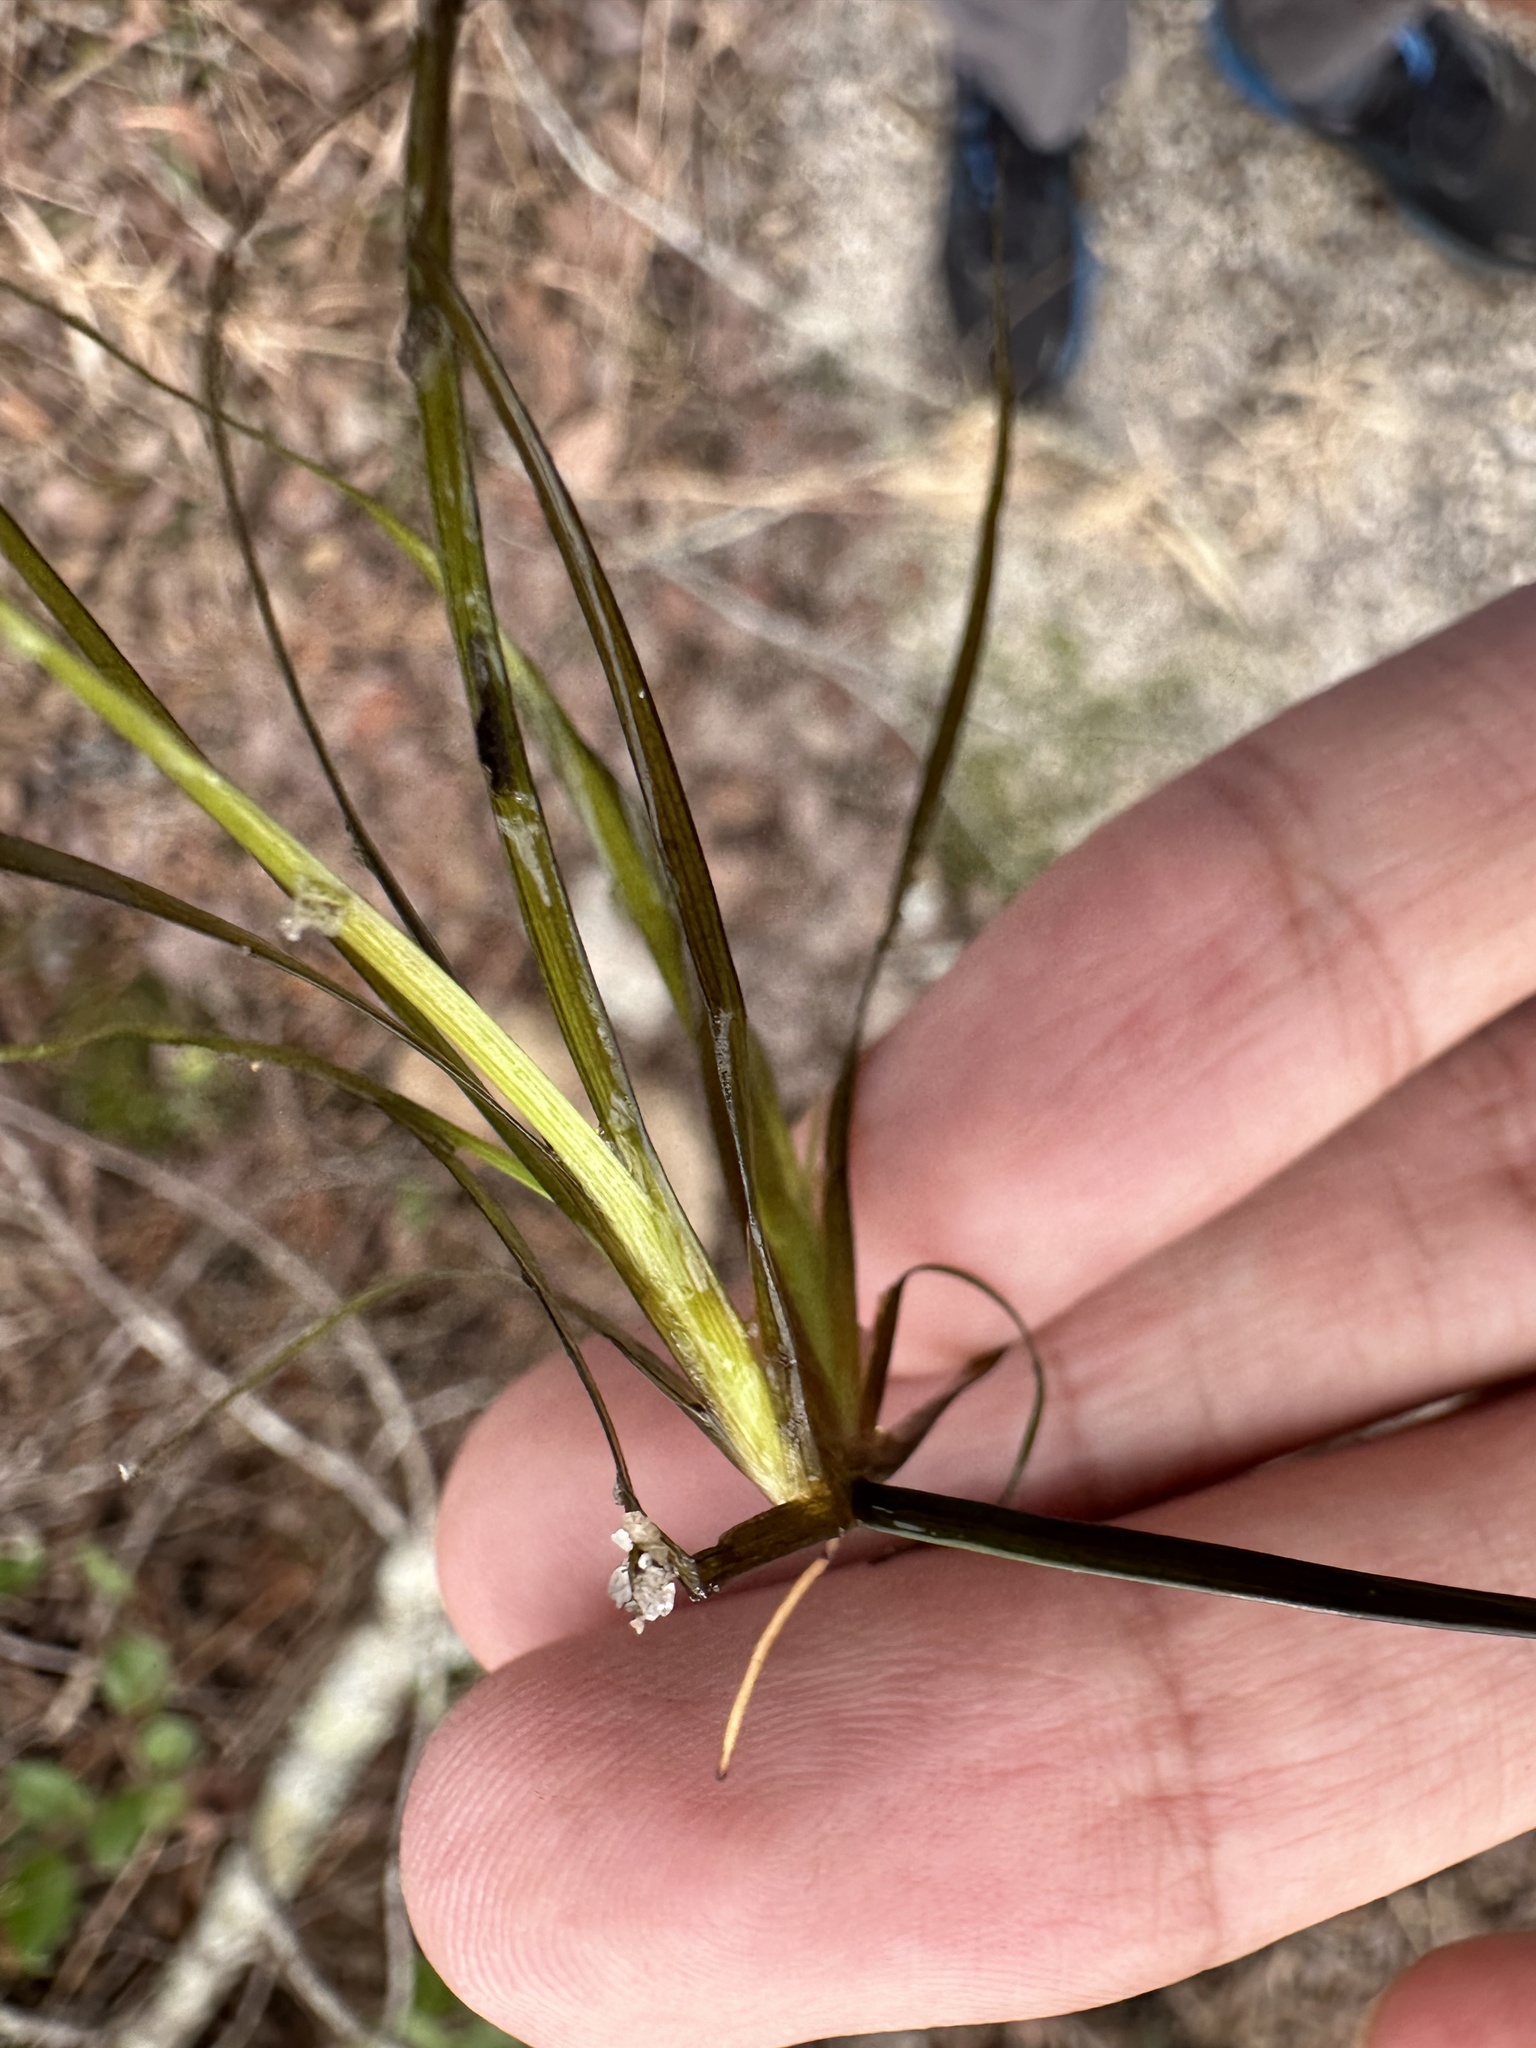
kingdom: Plantae
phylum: Tracheophyta
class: Liliopsida
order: Poales
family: Juncaceae
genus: Juncus
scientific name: Juncus repens
